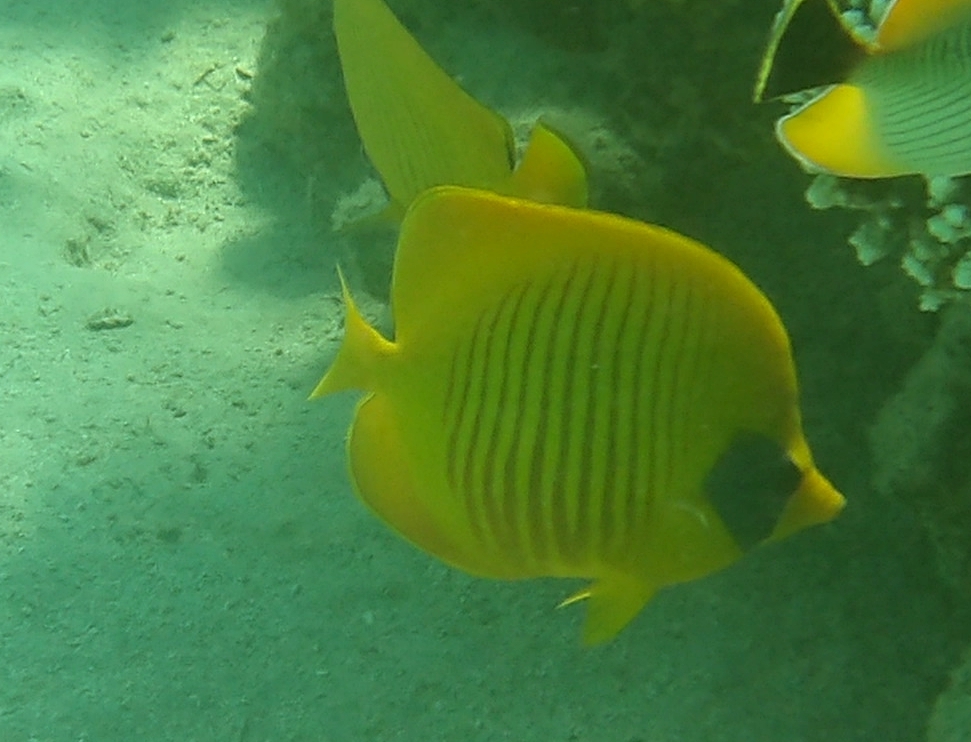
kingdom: Animalia
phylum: Chordata
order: Perciformes
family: Chaetodontidae
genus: Chaetodon
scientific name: Chaetodon semilarvatus
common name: Golden butterflyfish
